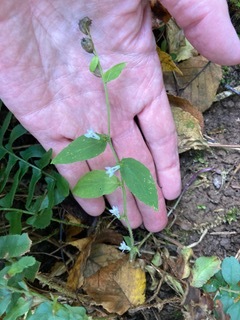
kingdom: Plantae
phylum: Tracheophyta
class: Magnoliopsida
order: Asterales
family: Campanulaceae
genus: Lobelia
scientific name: Lobelia inflata
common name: Indian tobacco
